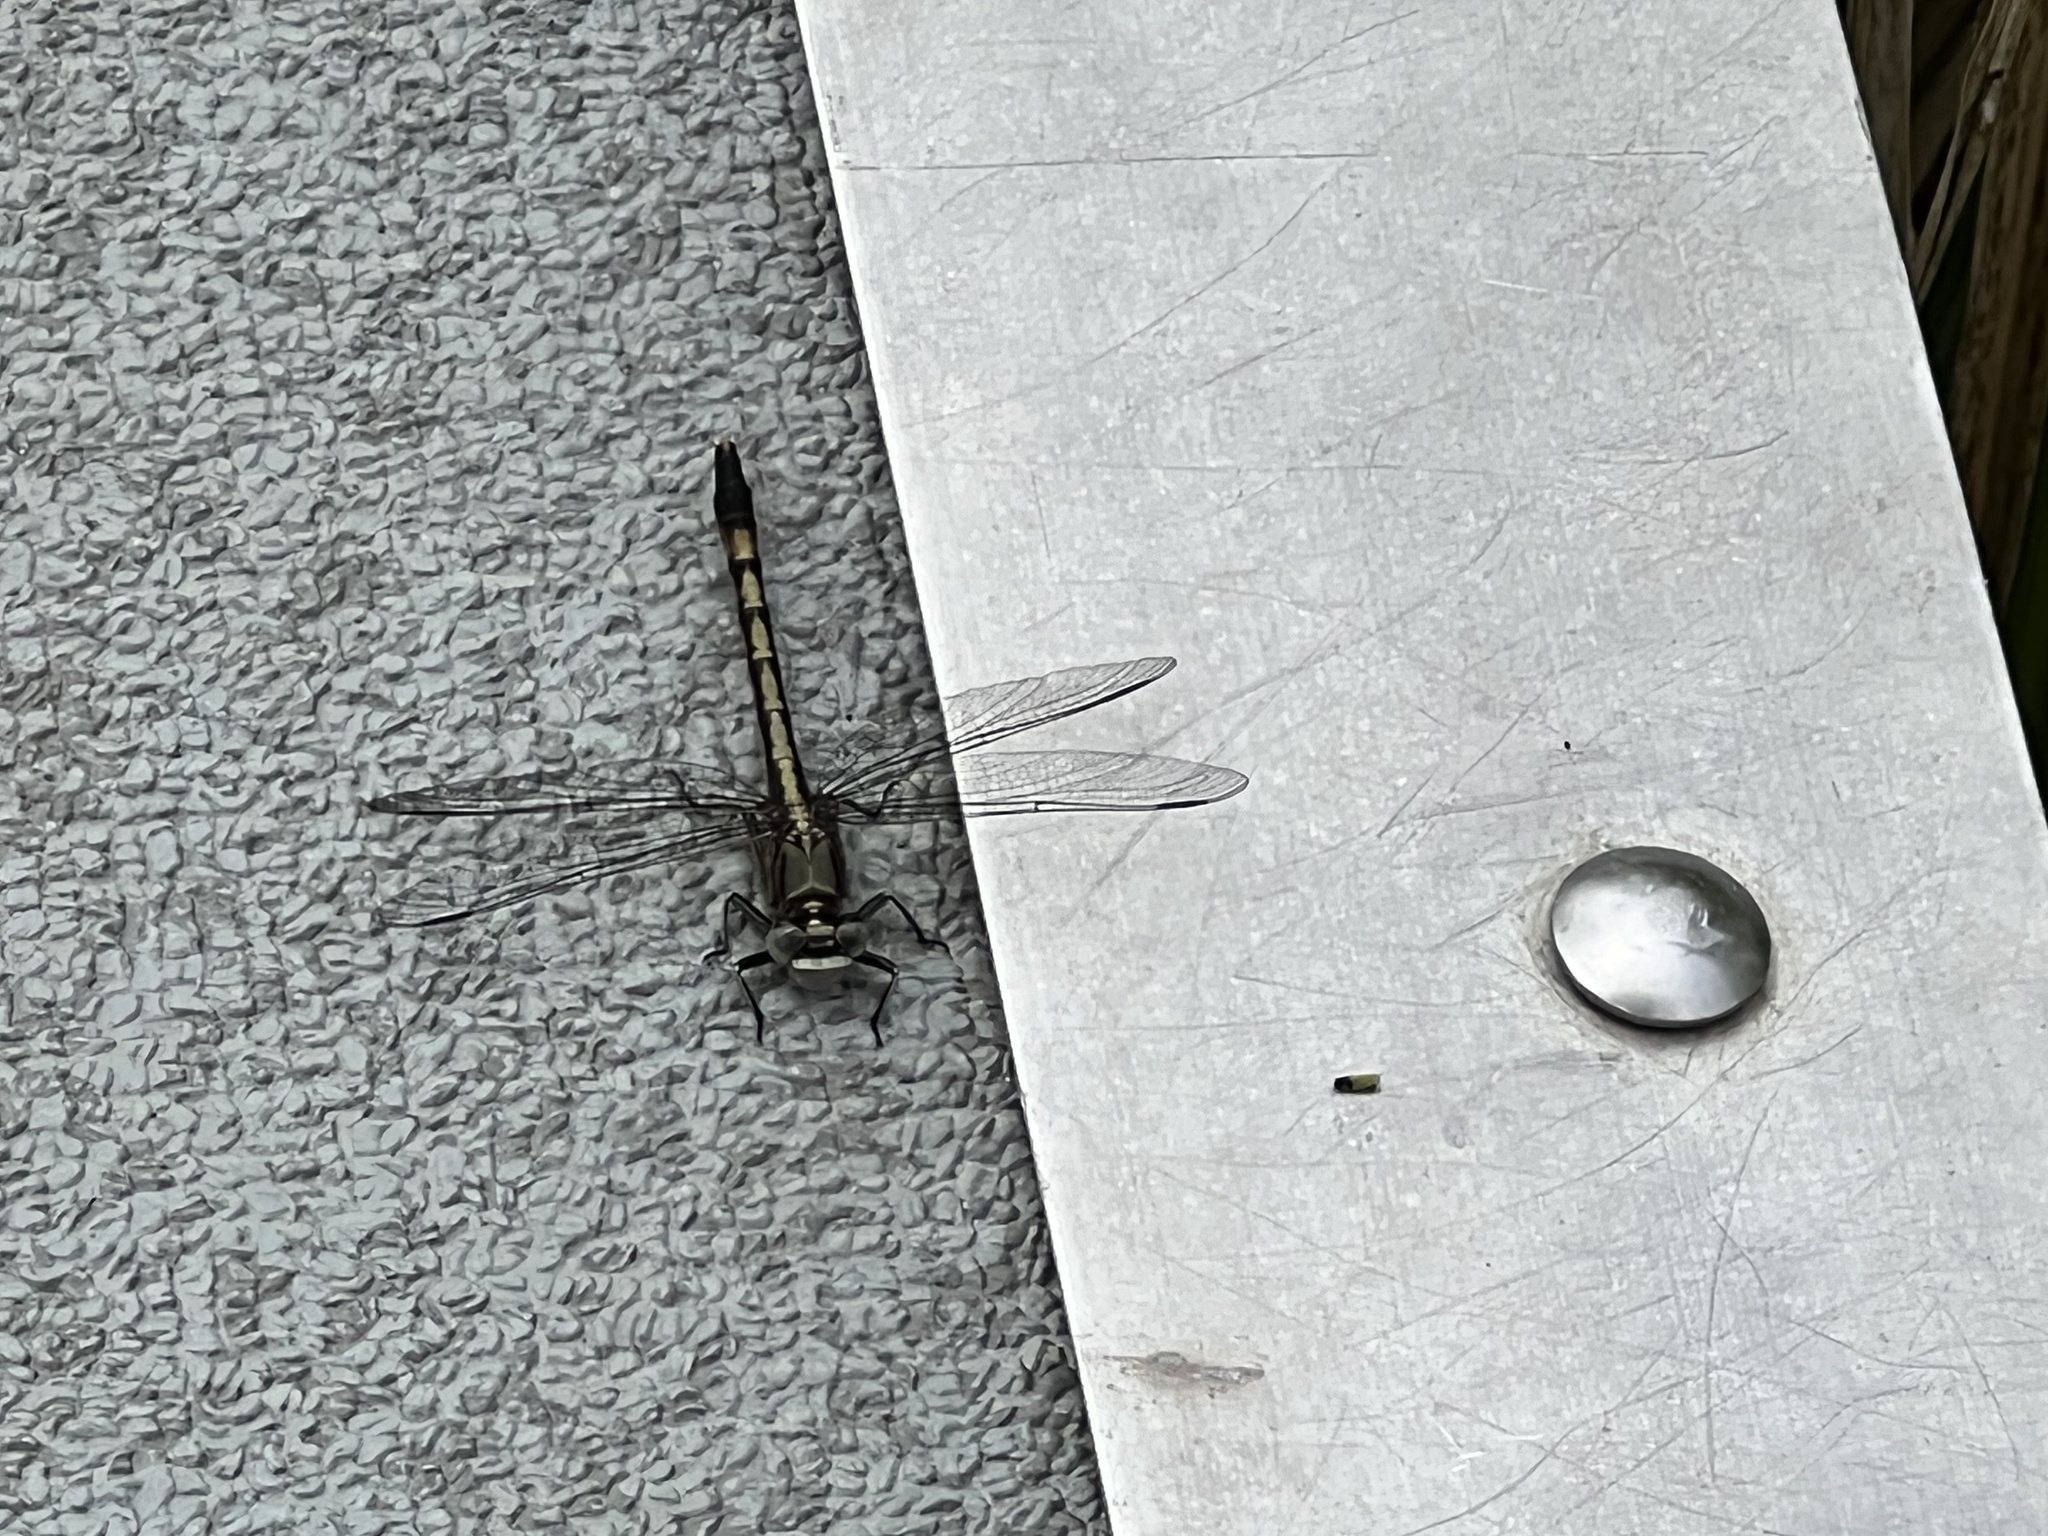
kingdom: Animalia
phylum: Arthropoda
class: Insecta
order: Odonata
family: Gomphidae
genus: Arigomphus
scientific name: Arigomphus pallidus
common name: Gray-green clubtail
